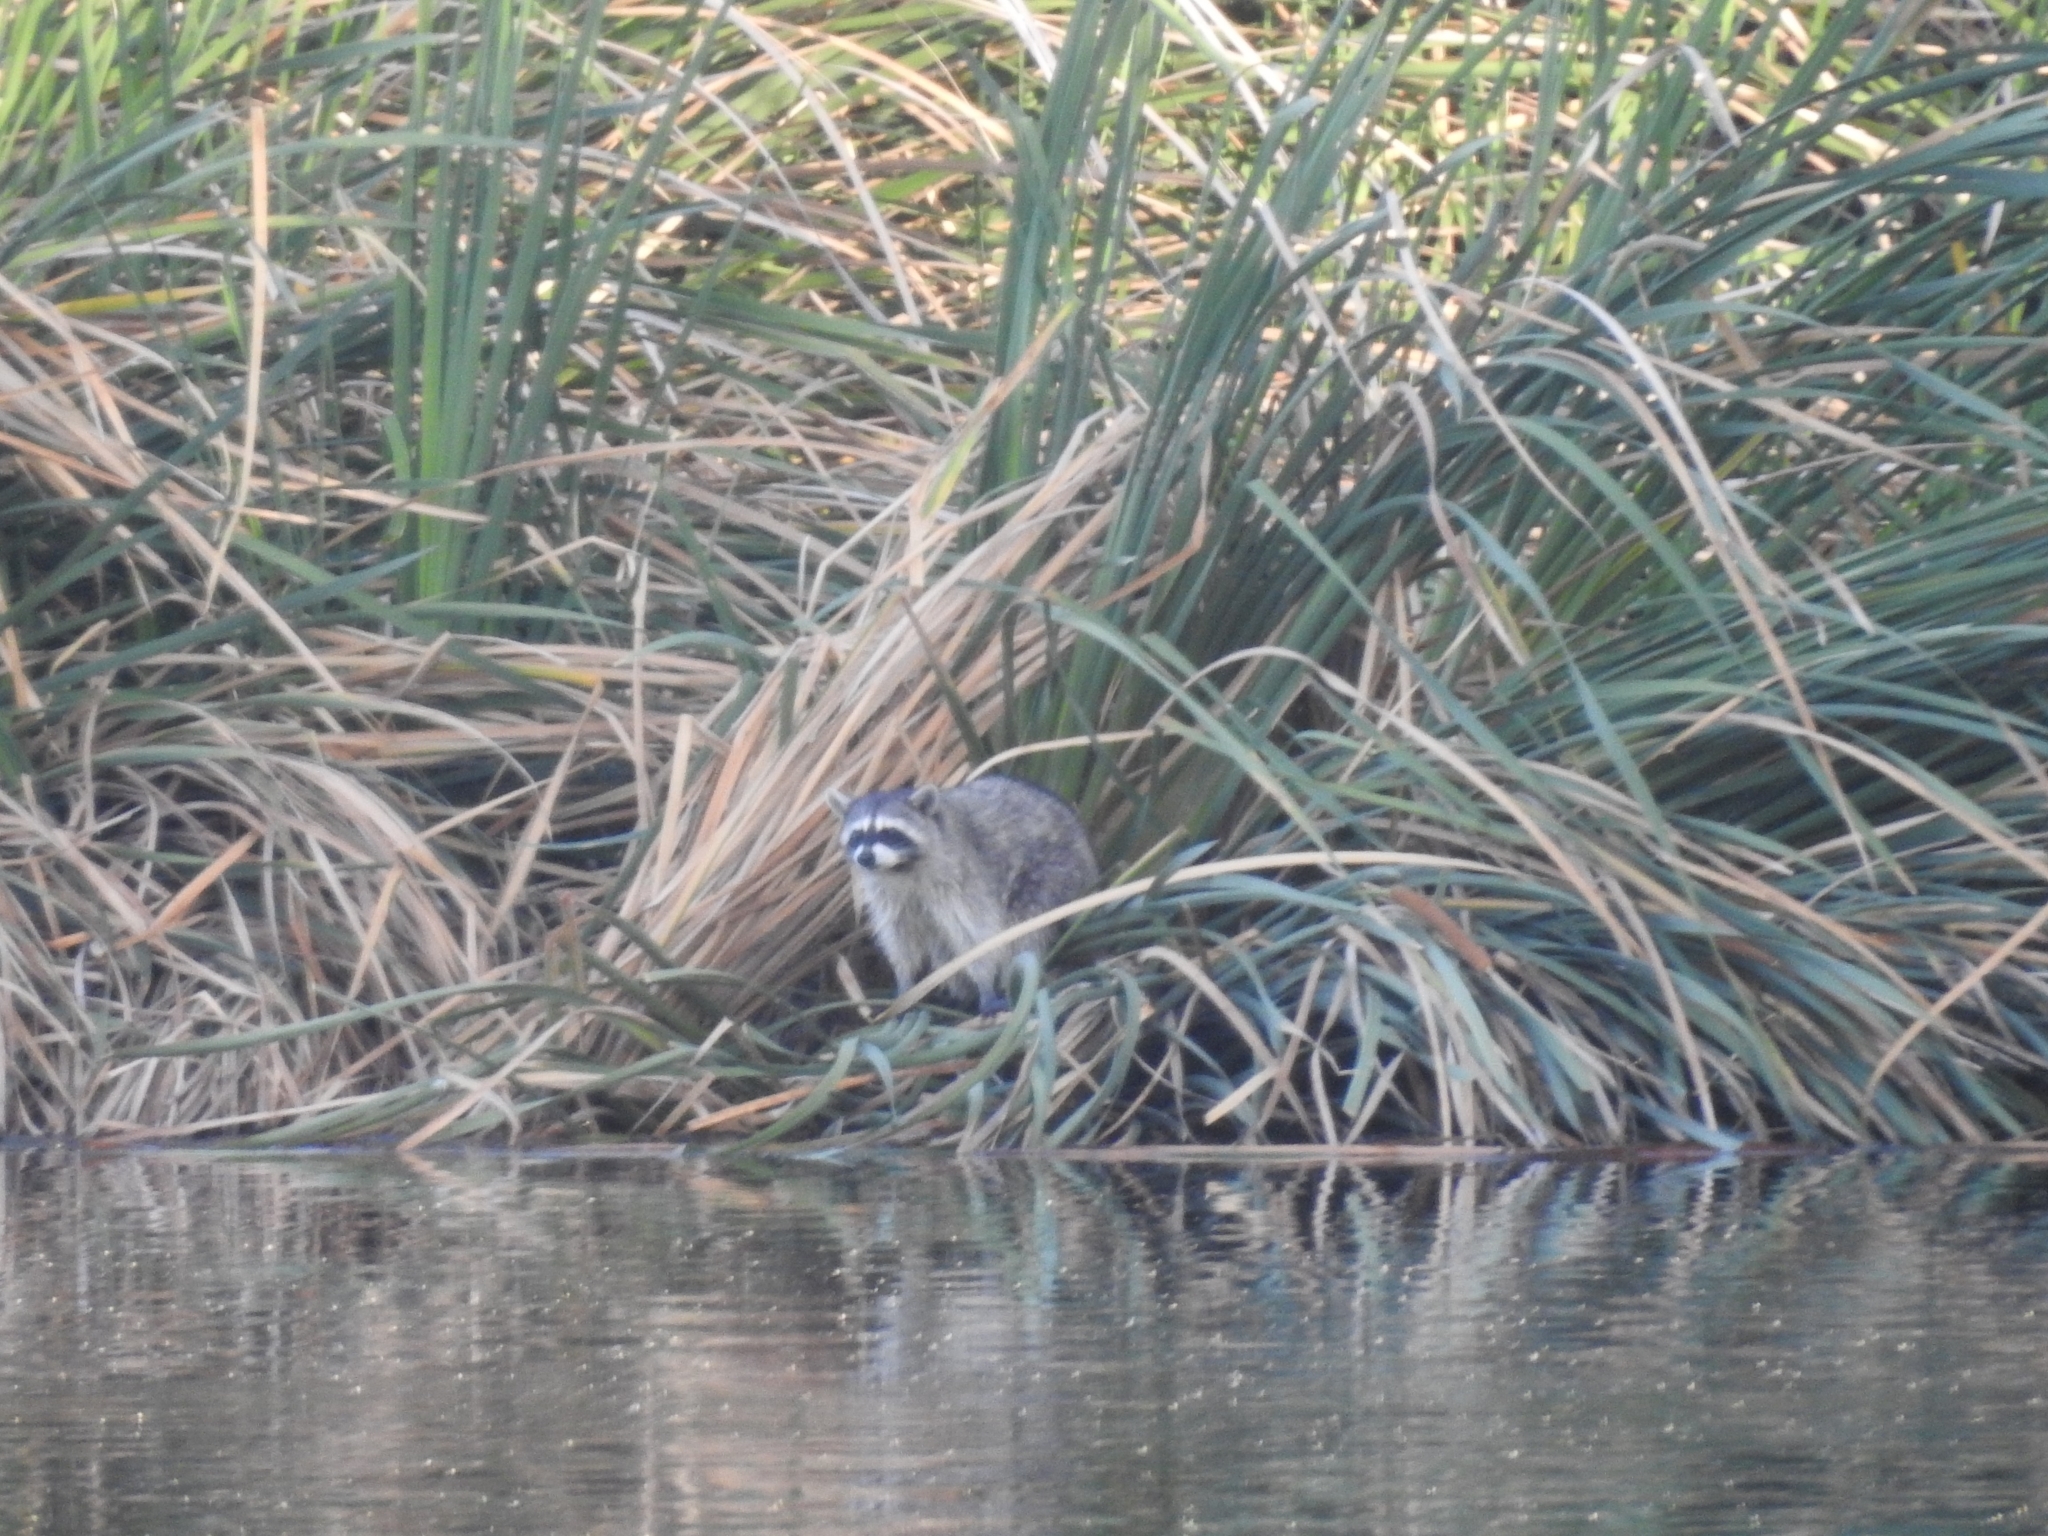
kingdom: Animalia
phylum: Chordata
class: Mammalia
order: Carnivora
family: Procyonidae
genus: Procyon
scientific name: Procyon lotor
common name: Raccoon
